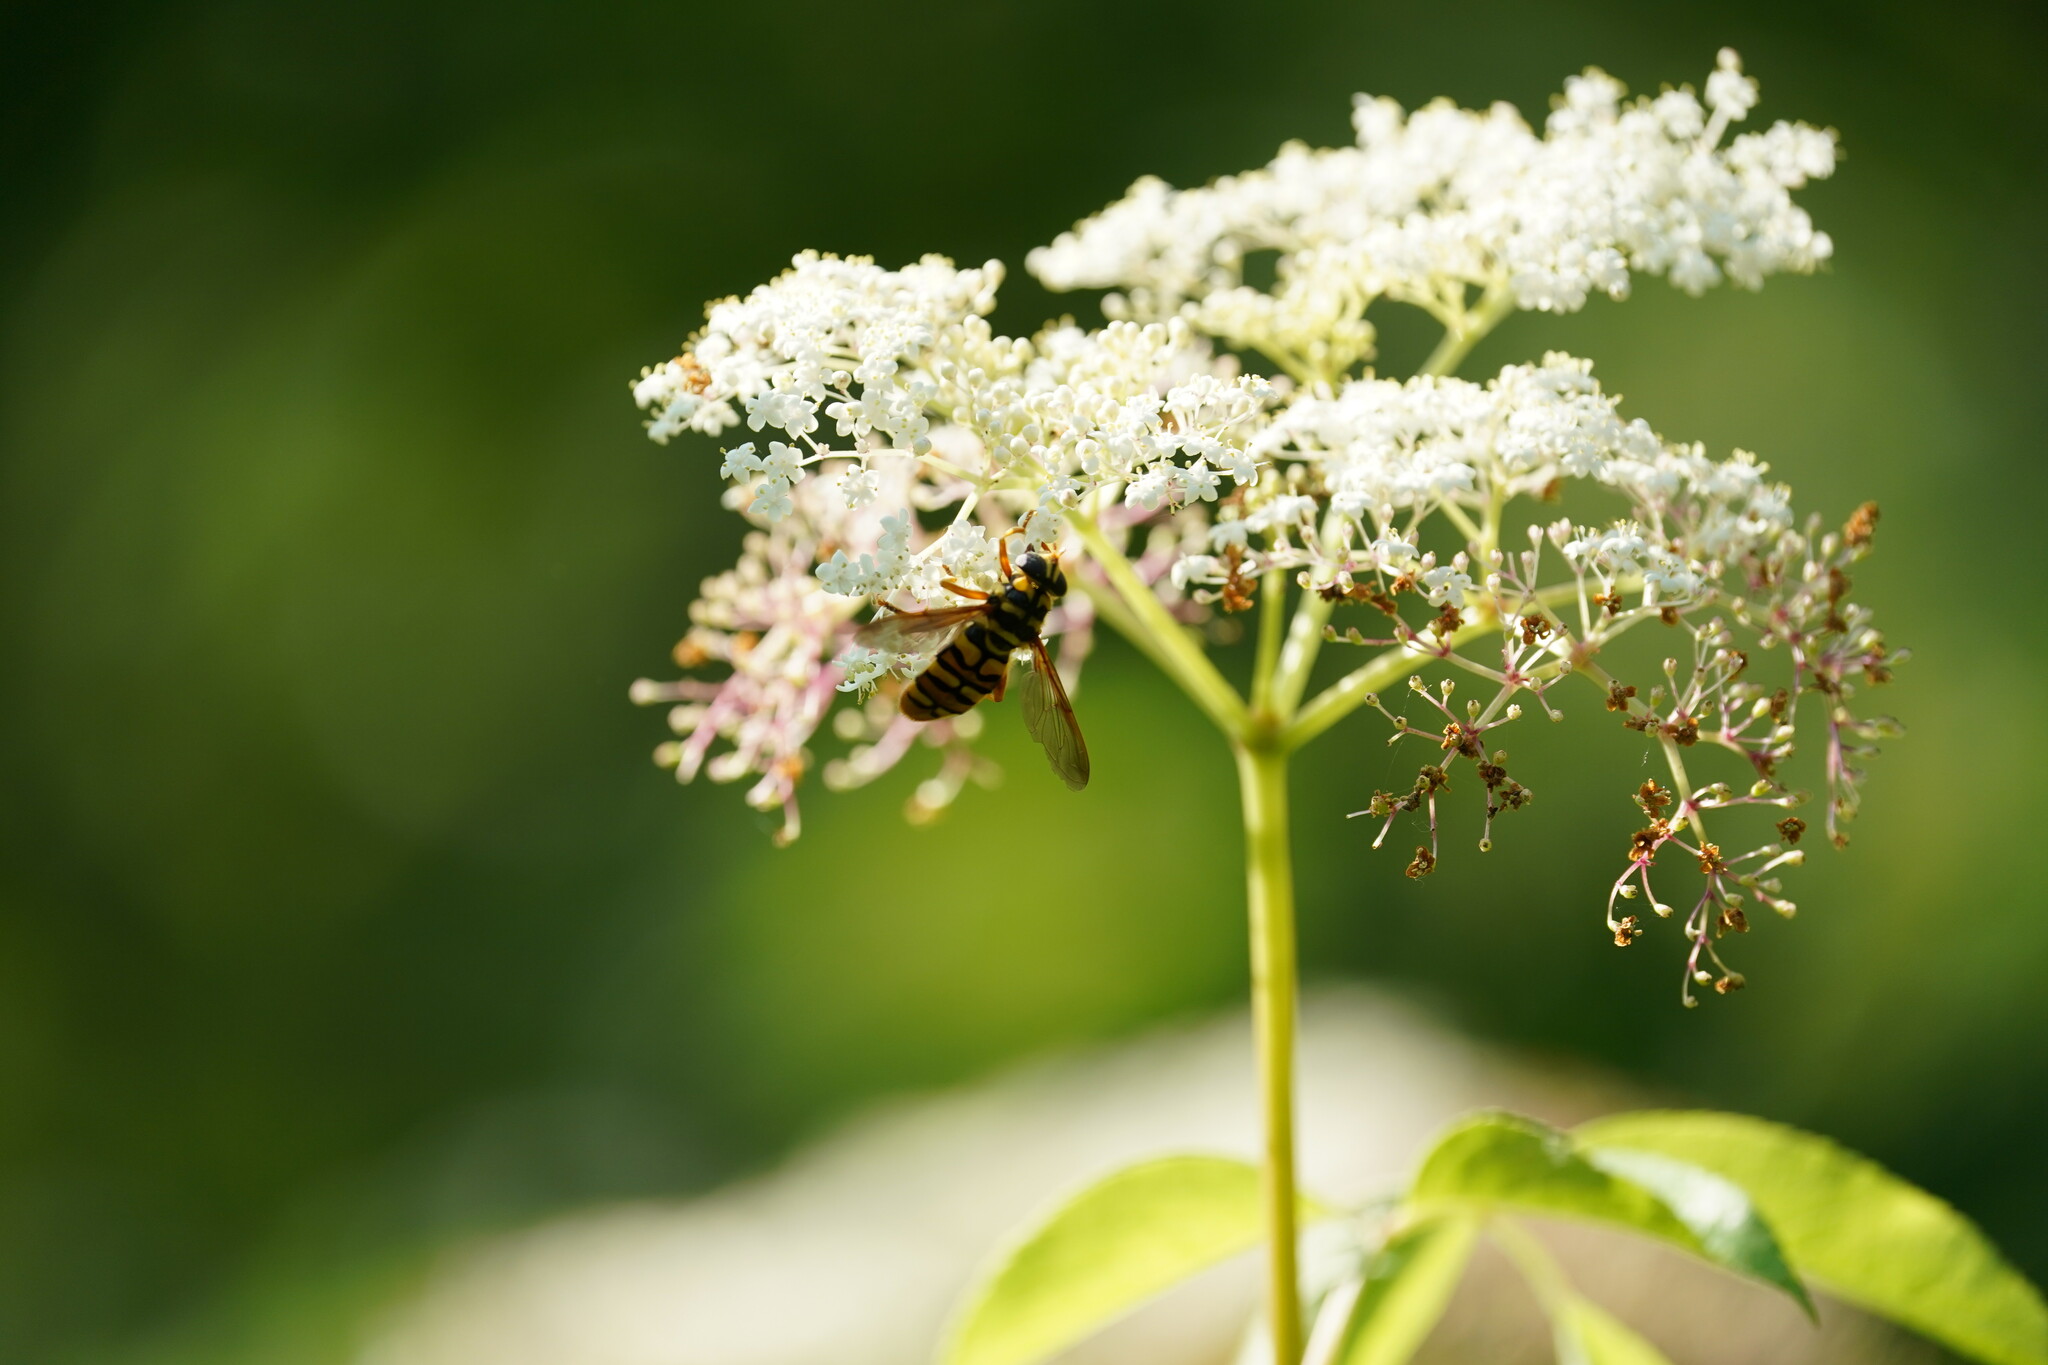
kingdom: Animalia
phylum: Arthropoda
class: Insecta
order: Diptera
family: Syrphidae
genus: Milesia
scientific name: Milesia virginiensis
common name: Virginia giant
